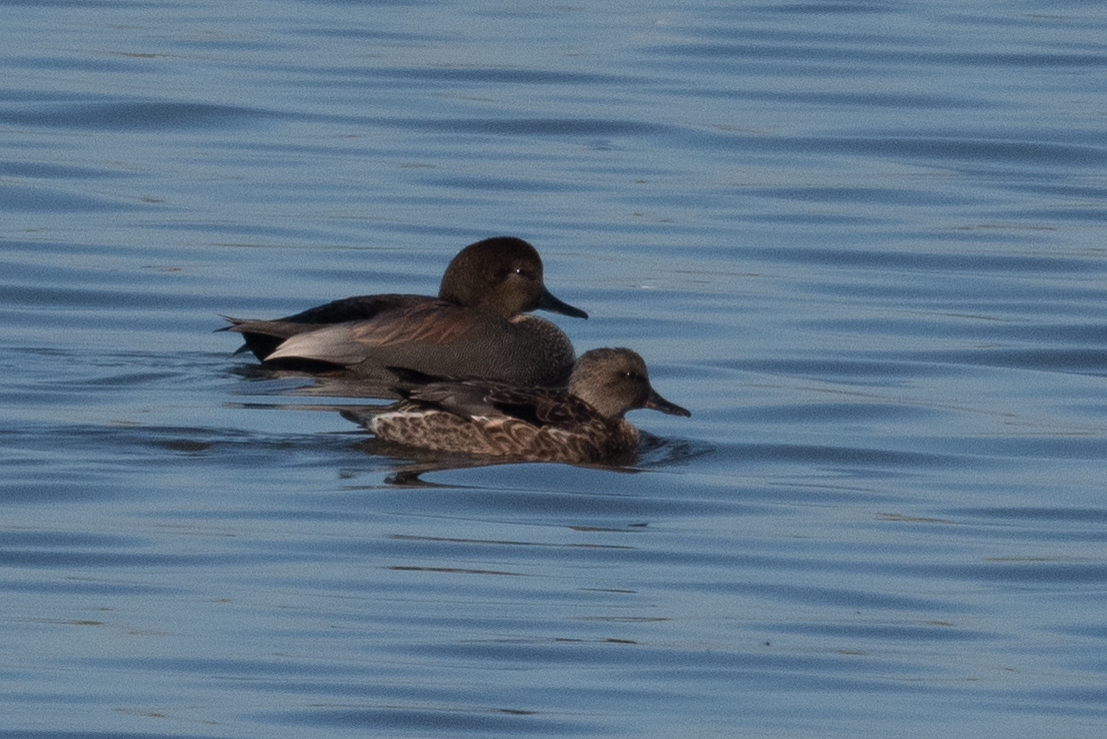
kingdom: Animalia
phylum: Chordata
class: Aves
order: Anseriformes
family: Anatidae
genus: Mareca
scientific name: Mareca strepera
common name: Gadwall
